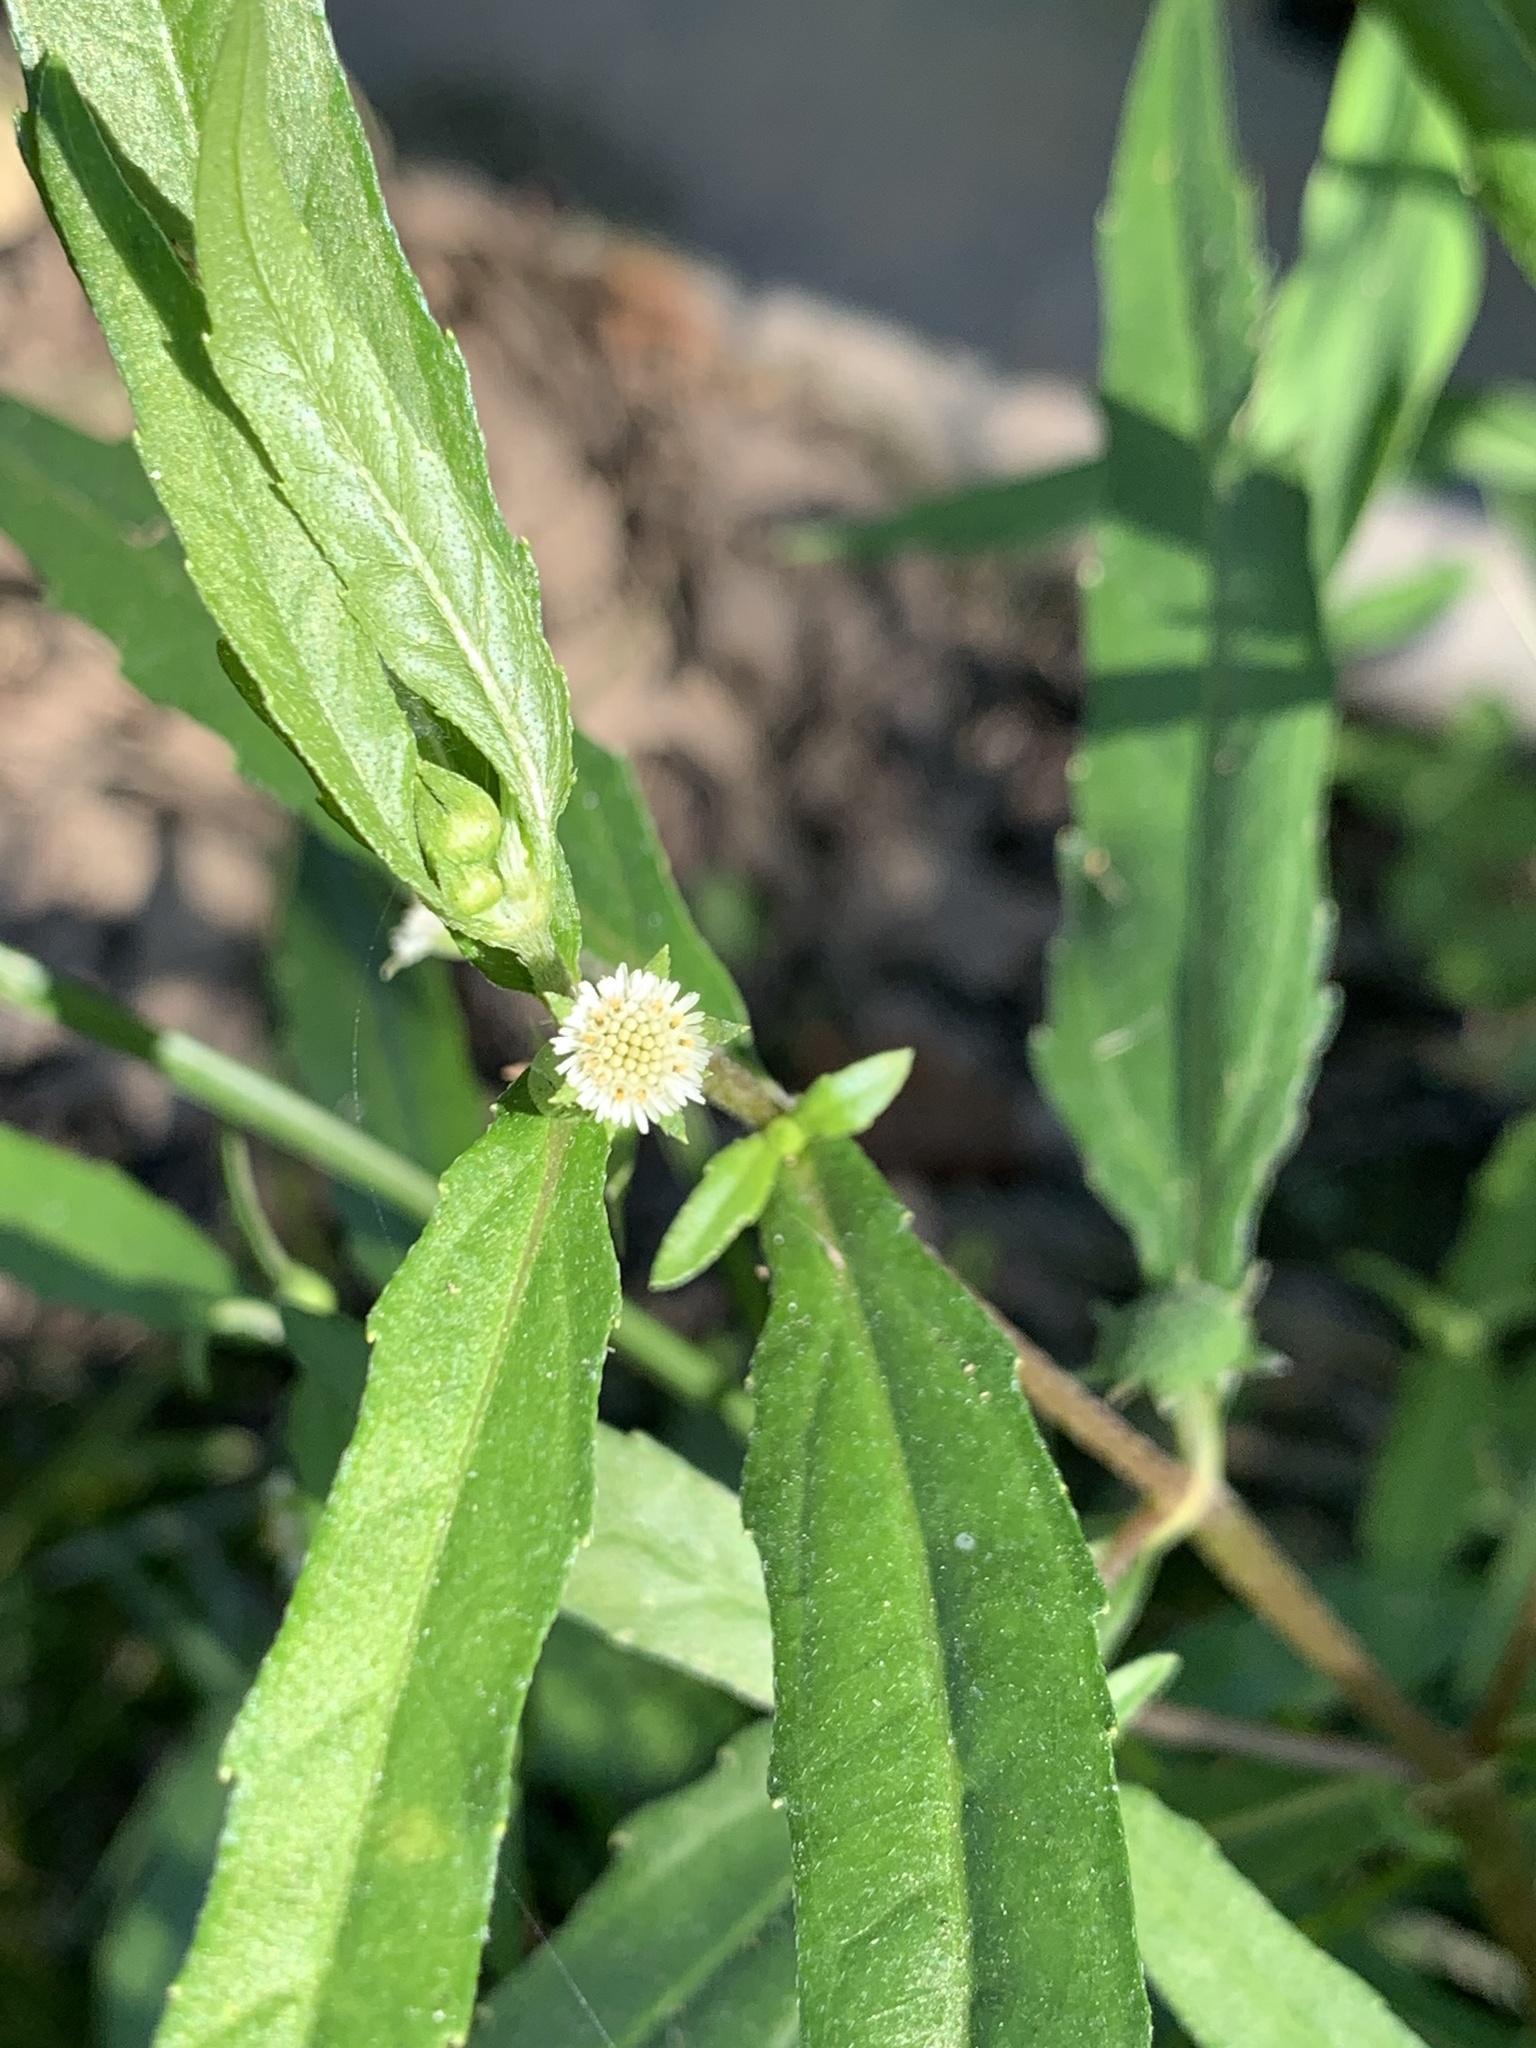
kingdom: Plantae
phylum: Tracheophyta
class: Magnoliopsida
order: Asterales
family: Asteraceae
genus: Eclipta
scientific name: Eclipta prostrata
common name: False daisy
